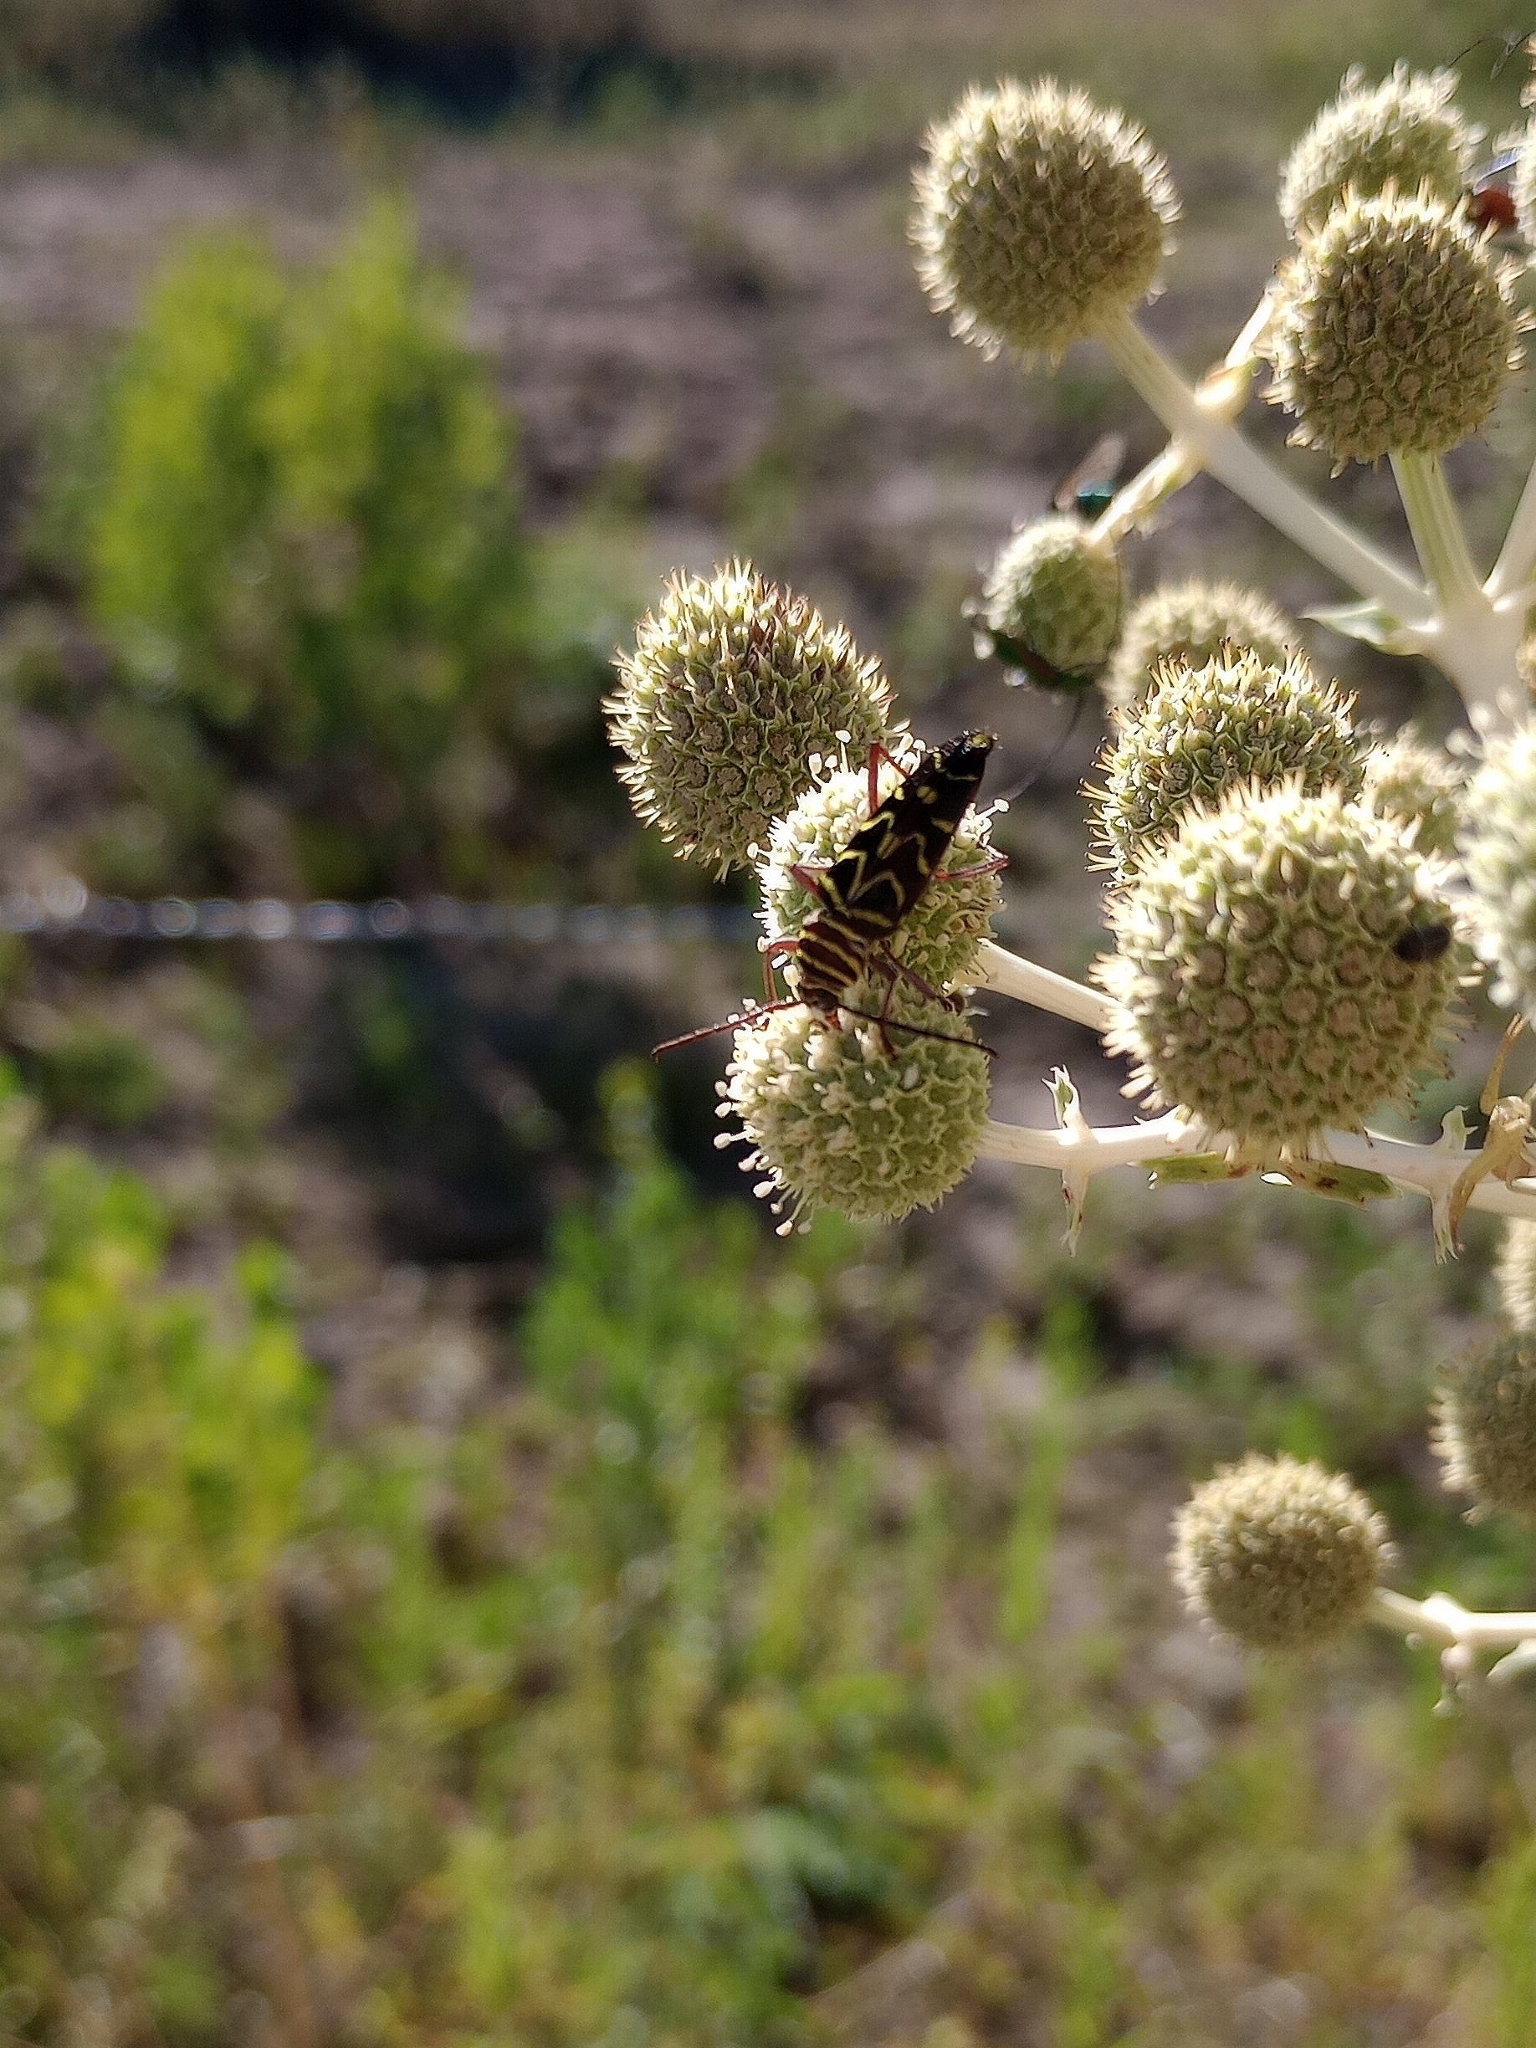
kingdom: Animalia
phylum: Arthropoda
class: Insecta
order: Coleoptera
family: Cerambycidae
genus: Megacyllene
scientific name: Megacyllene acuta
